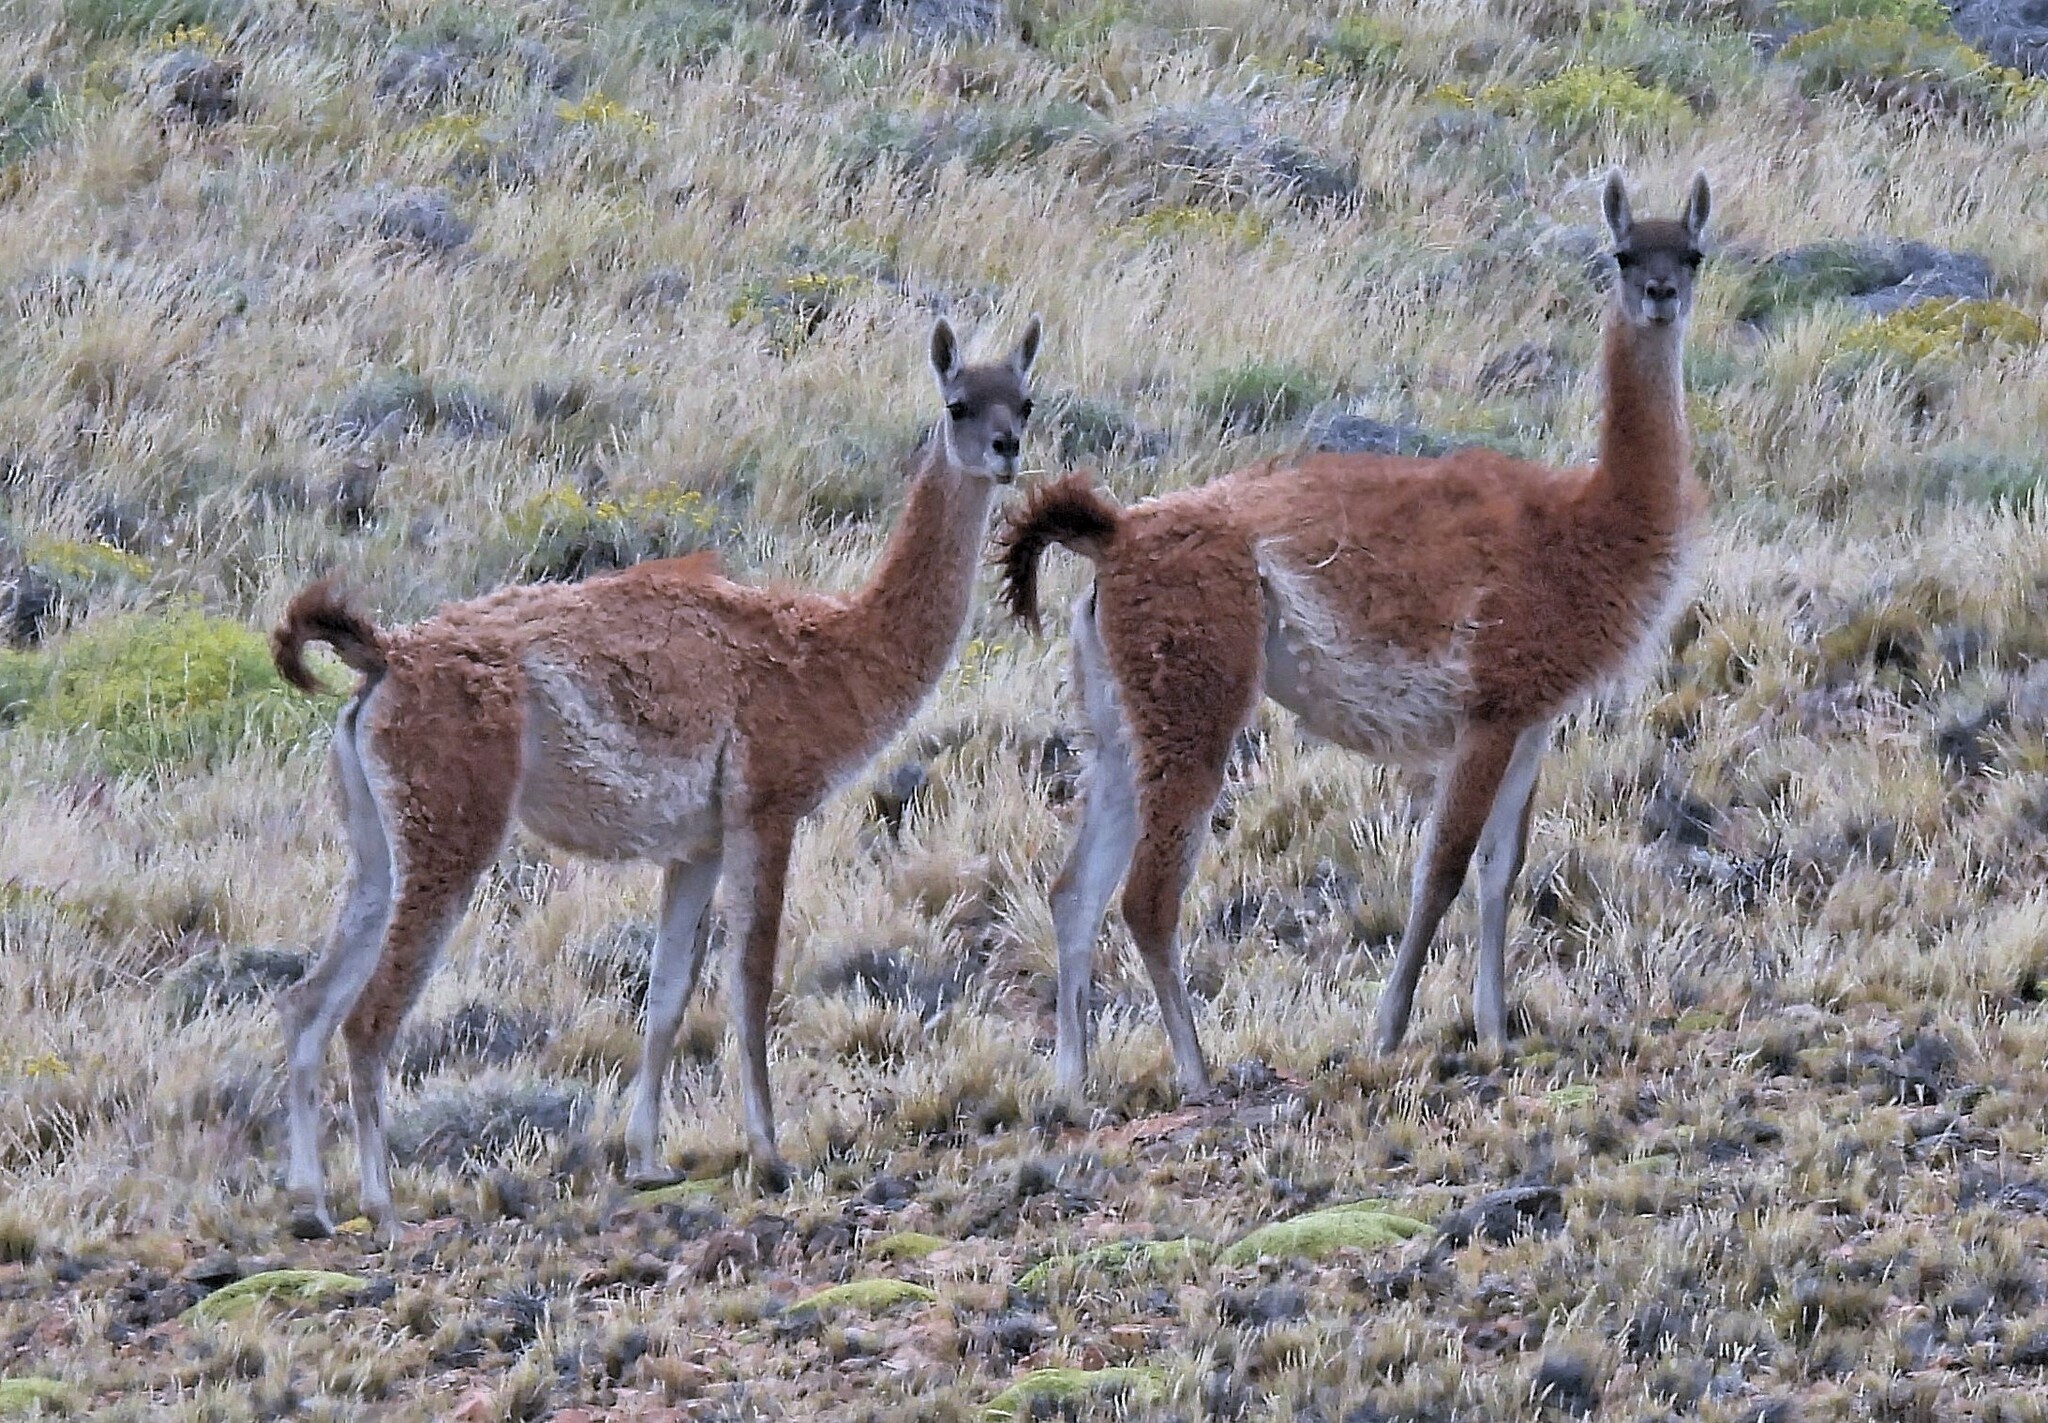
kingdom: Animalia
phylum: Chordata
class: Mammalia
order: Artiodactyla
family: Camelidae
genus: Lama
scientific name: Lama glama
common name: Llama
